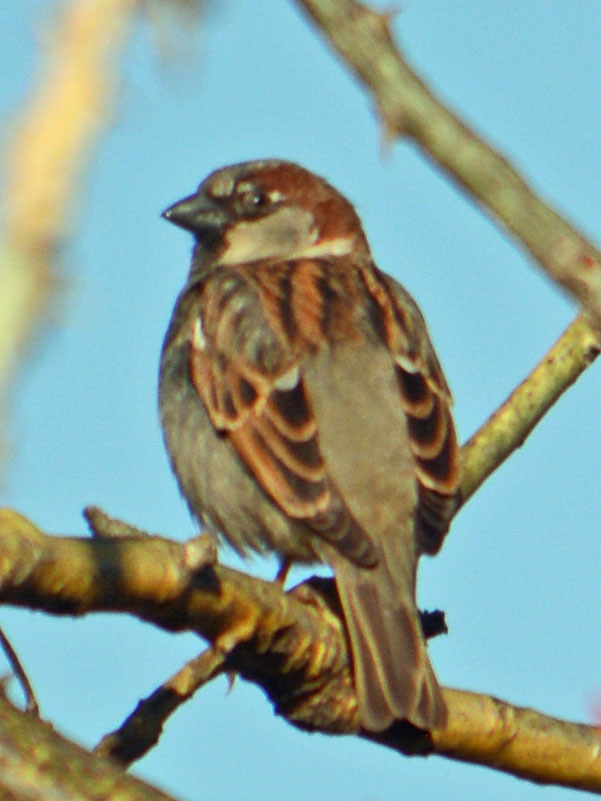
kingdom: Animalia
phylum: Chordata
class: Aves
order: Passeriformes
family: Passeridae
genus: Passer
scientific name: Passer domesticus
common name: House sparrow
